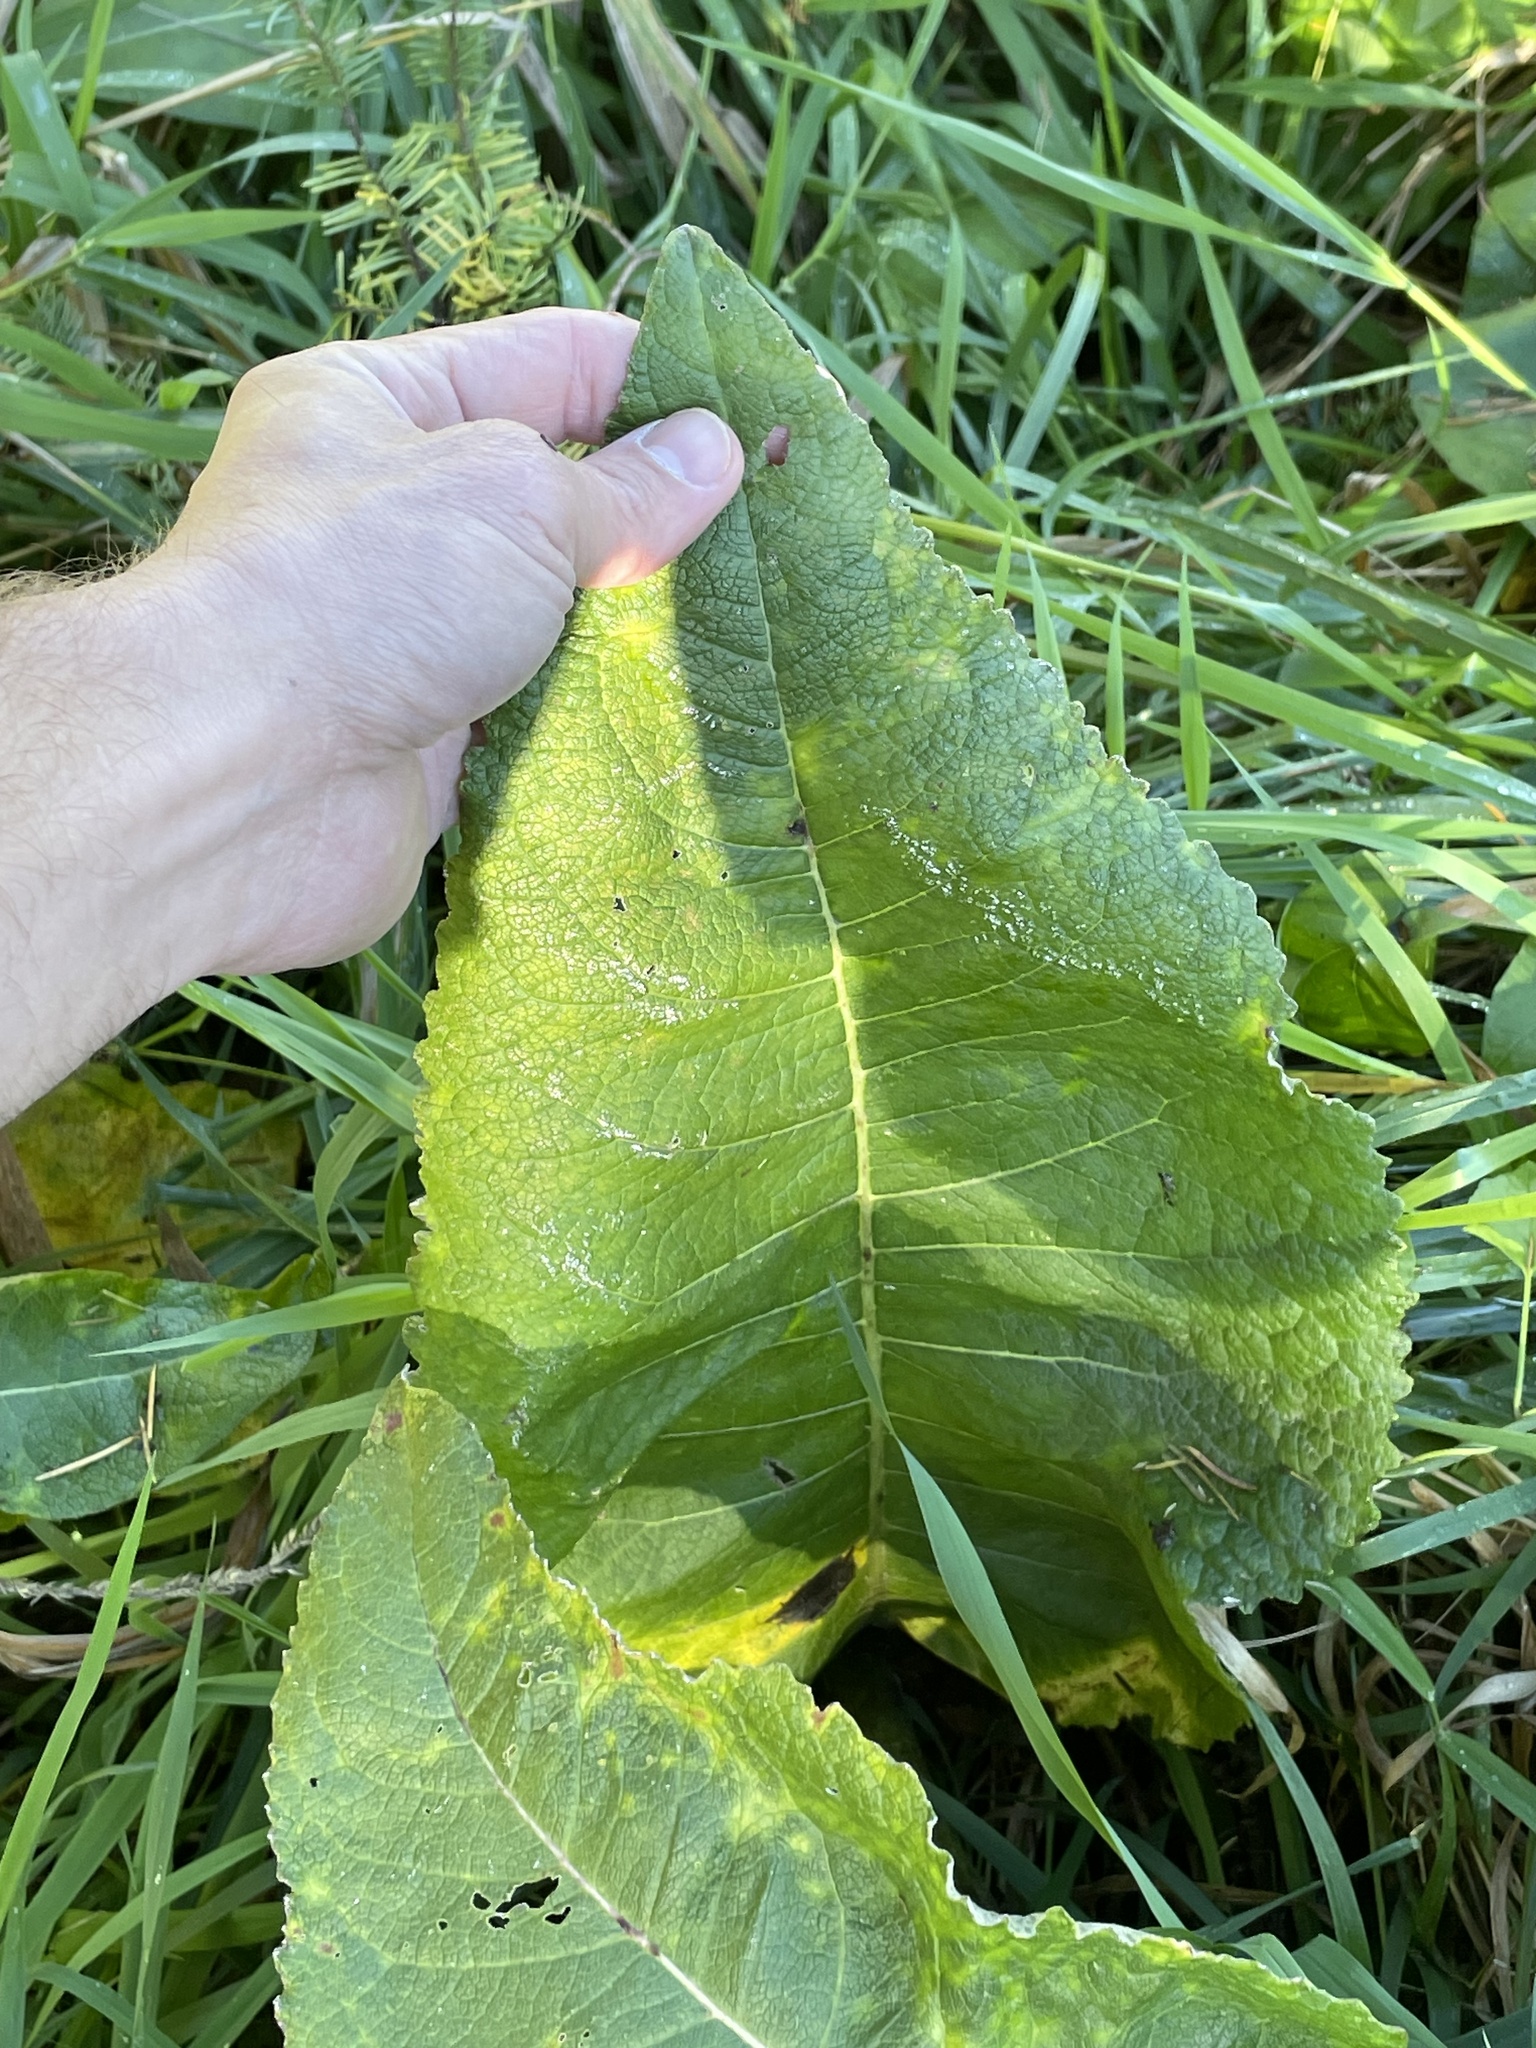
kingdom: Plantae
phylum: Tracheophyta
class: Magnoliopsida
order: Asterales
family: Asteraceae
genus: Inula
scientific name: Inula racemosa
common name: Indian elecampane
